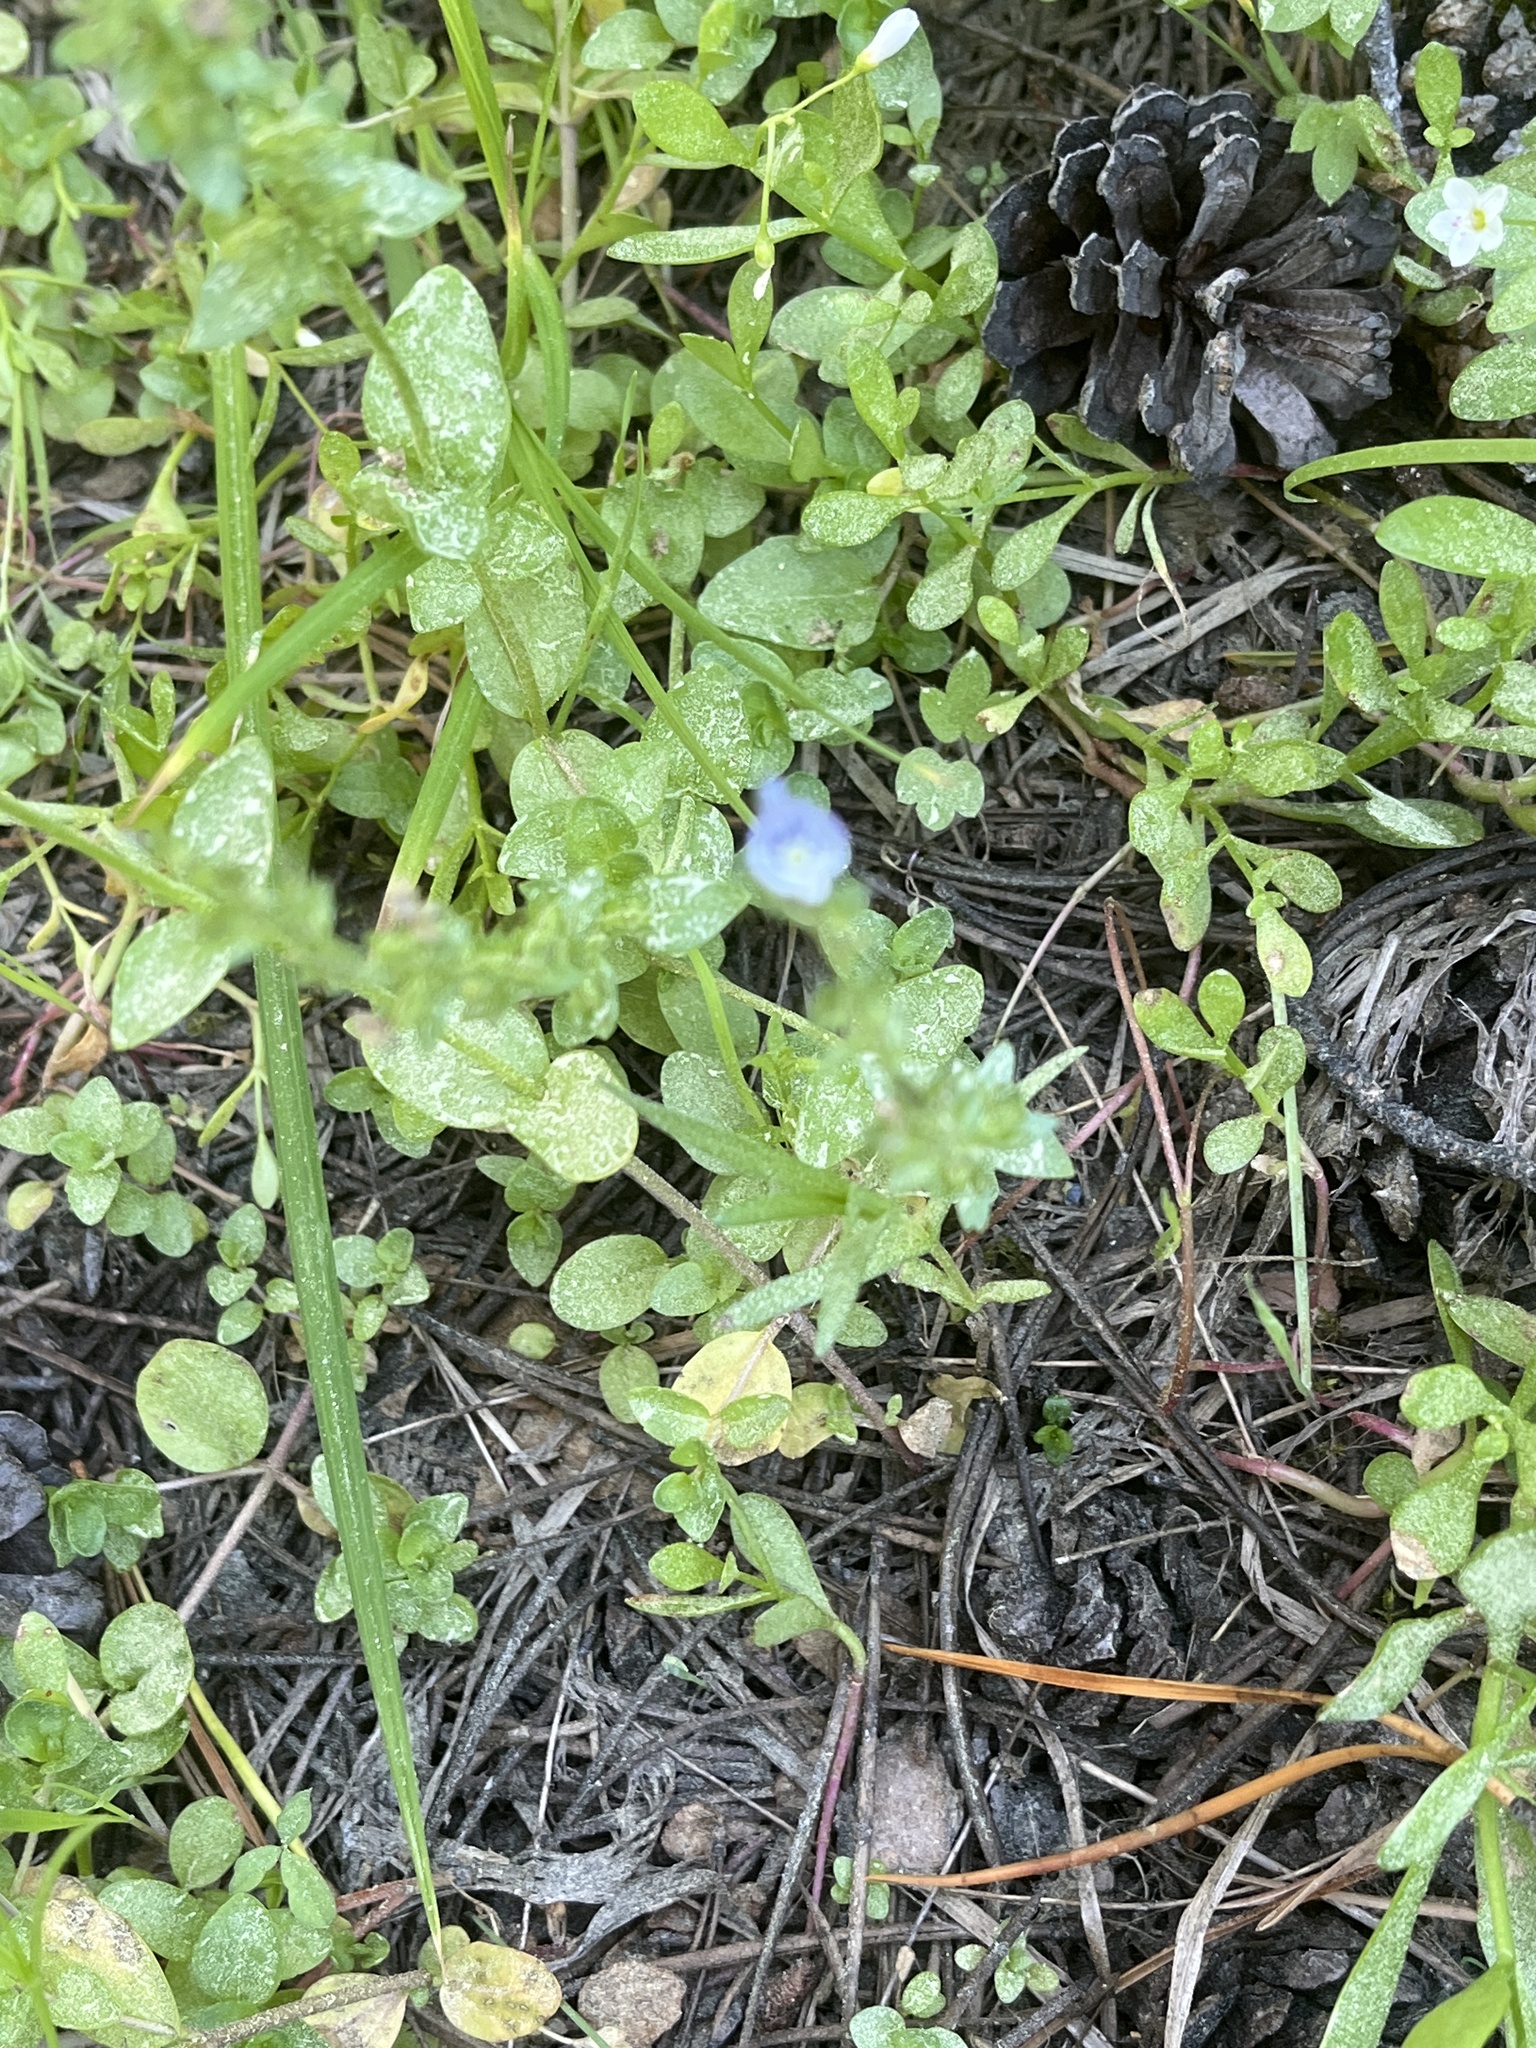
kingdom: Plantae
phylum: Tracheophyta
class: Magnoliopsida
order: Lamiales
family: Plantaginaceae
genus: Veronica
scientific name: Veronica serpyllifolia
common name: Thyme-leaved speedwell
